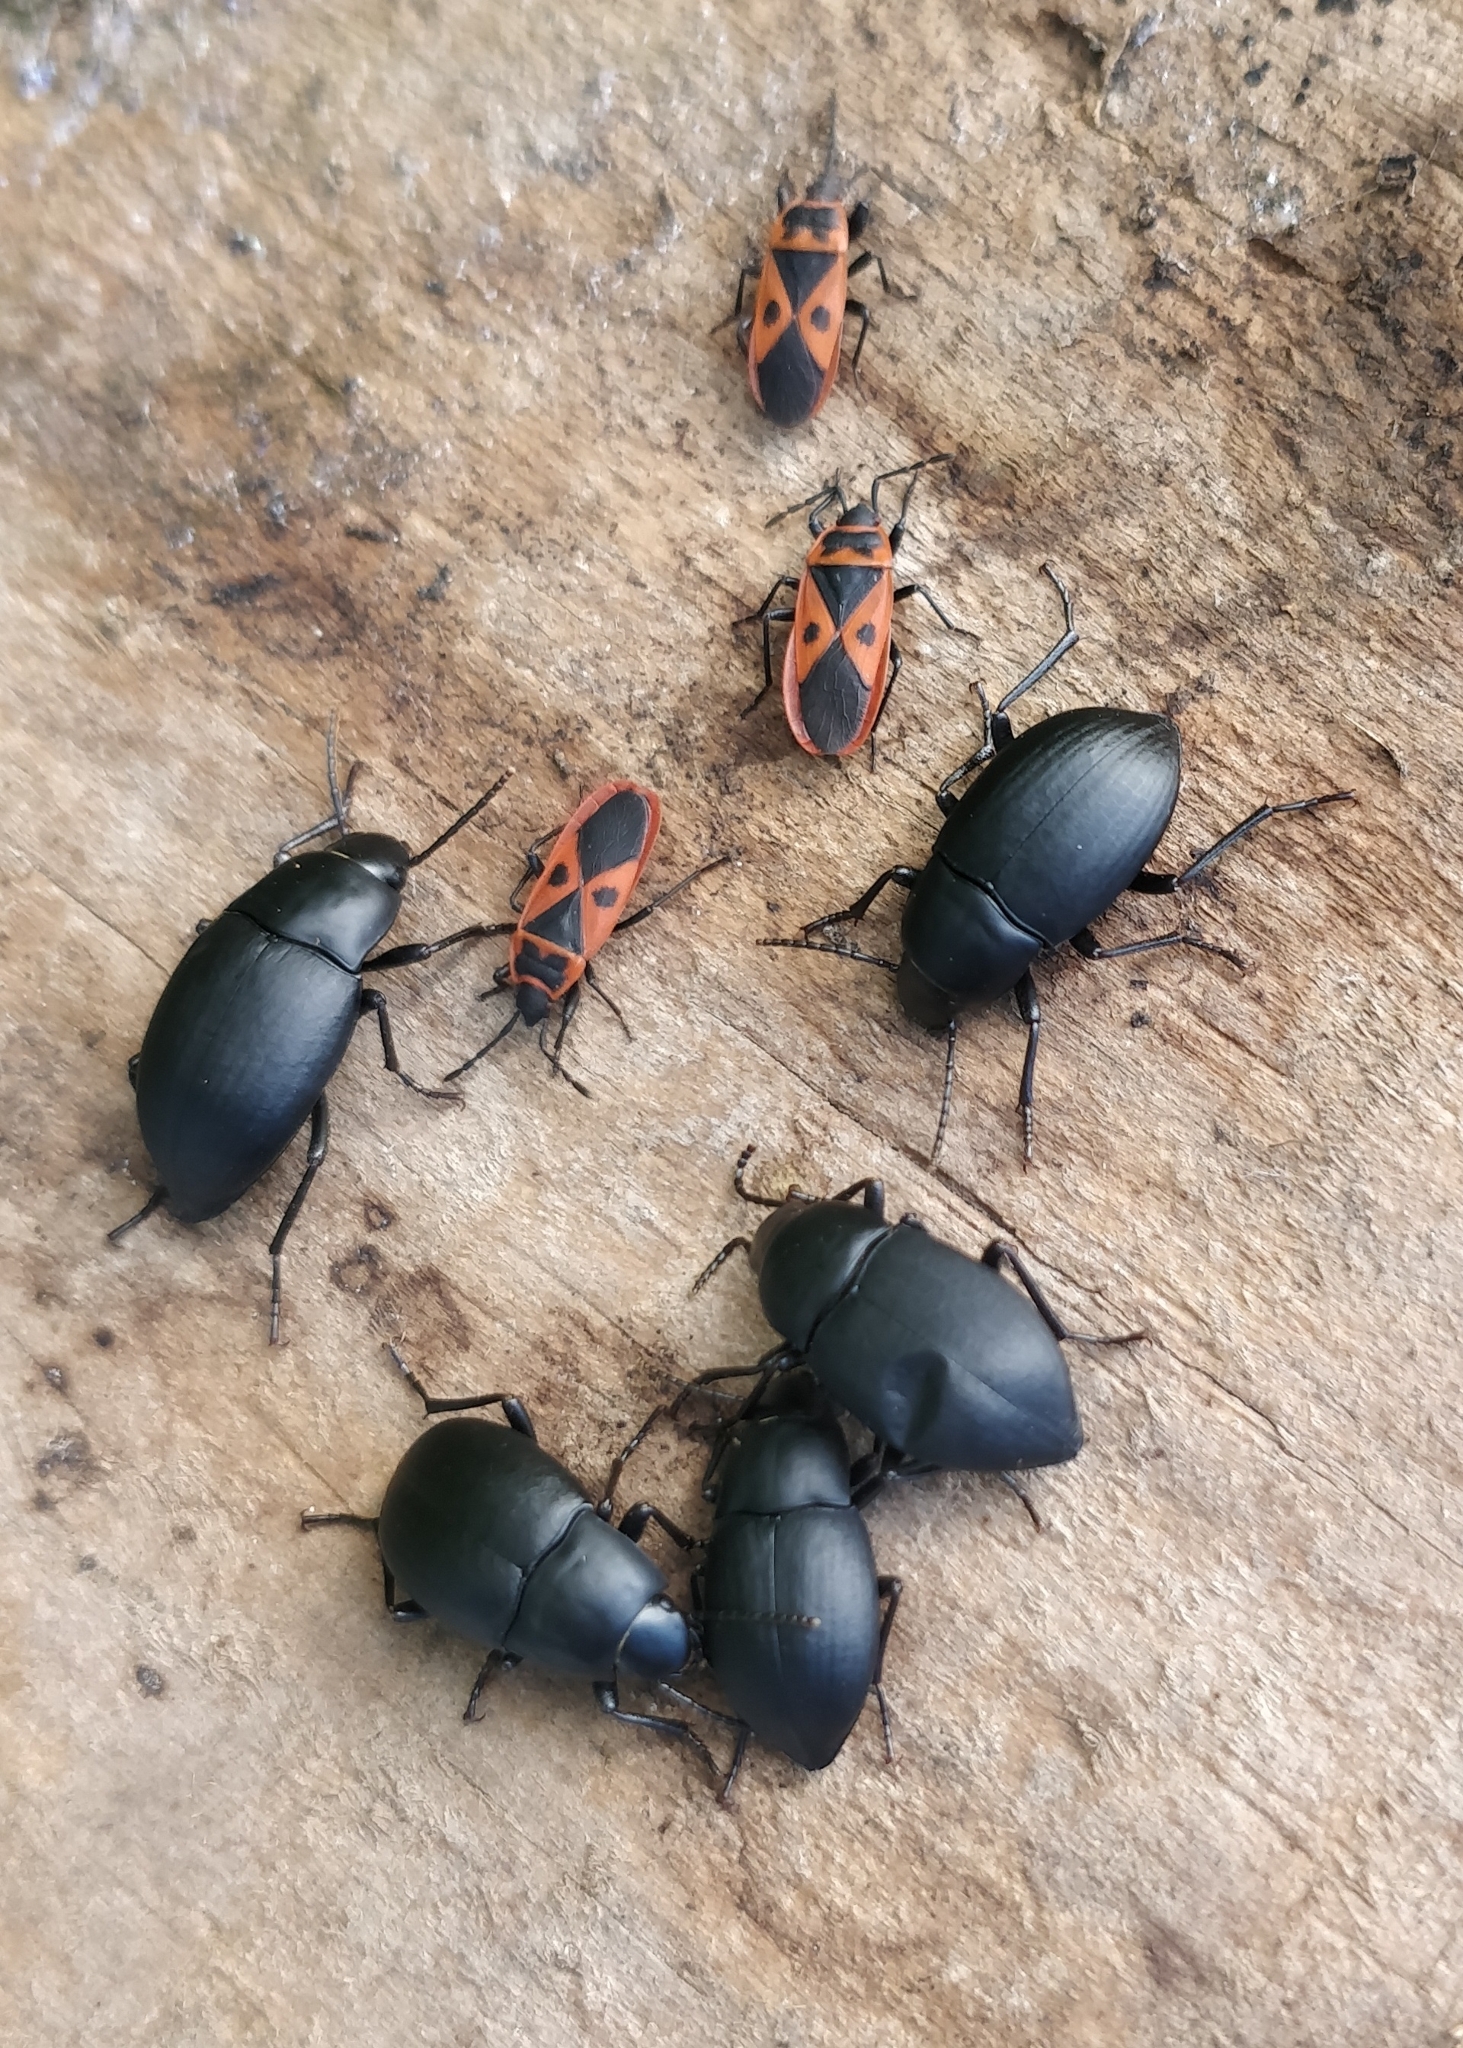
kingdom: Animalia
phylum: Arthropoda
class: Insecta
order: Hemiptera
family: Pyrrhocoridae
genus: Scantius
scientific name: Scantius aegyptius
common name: Red bug
